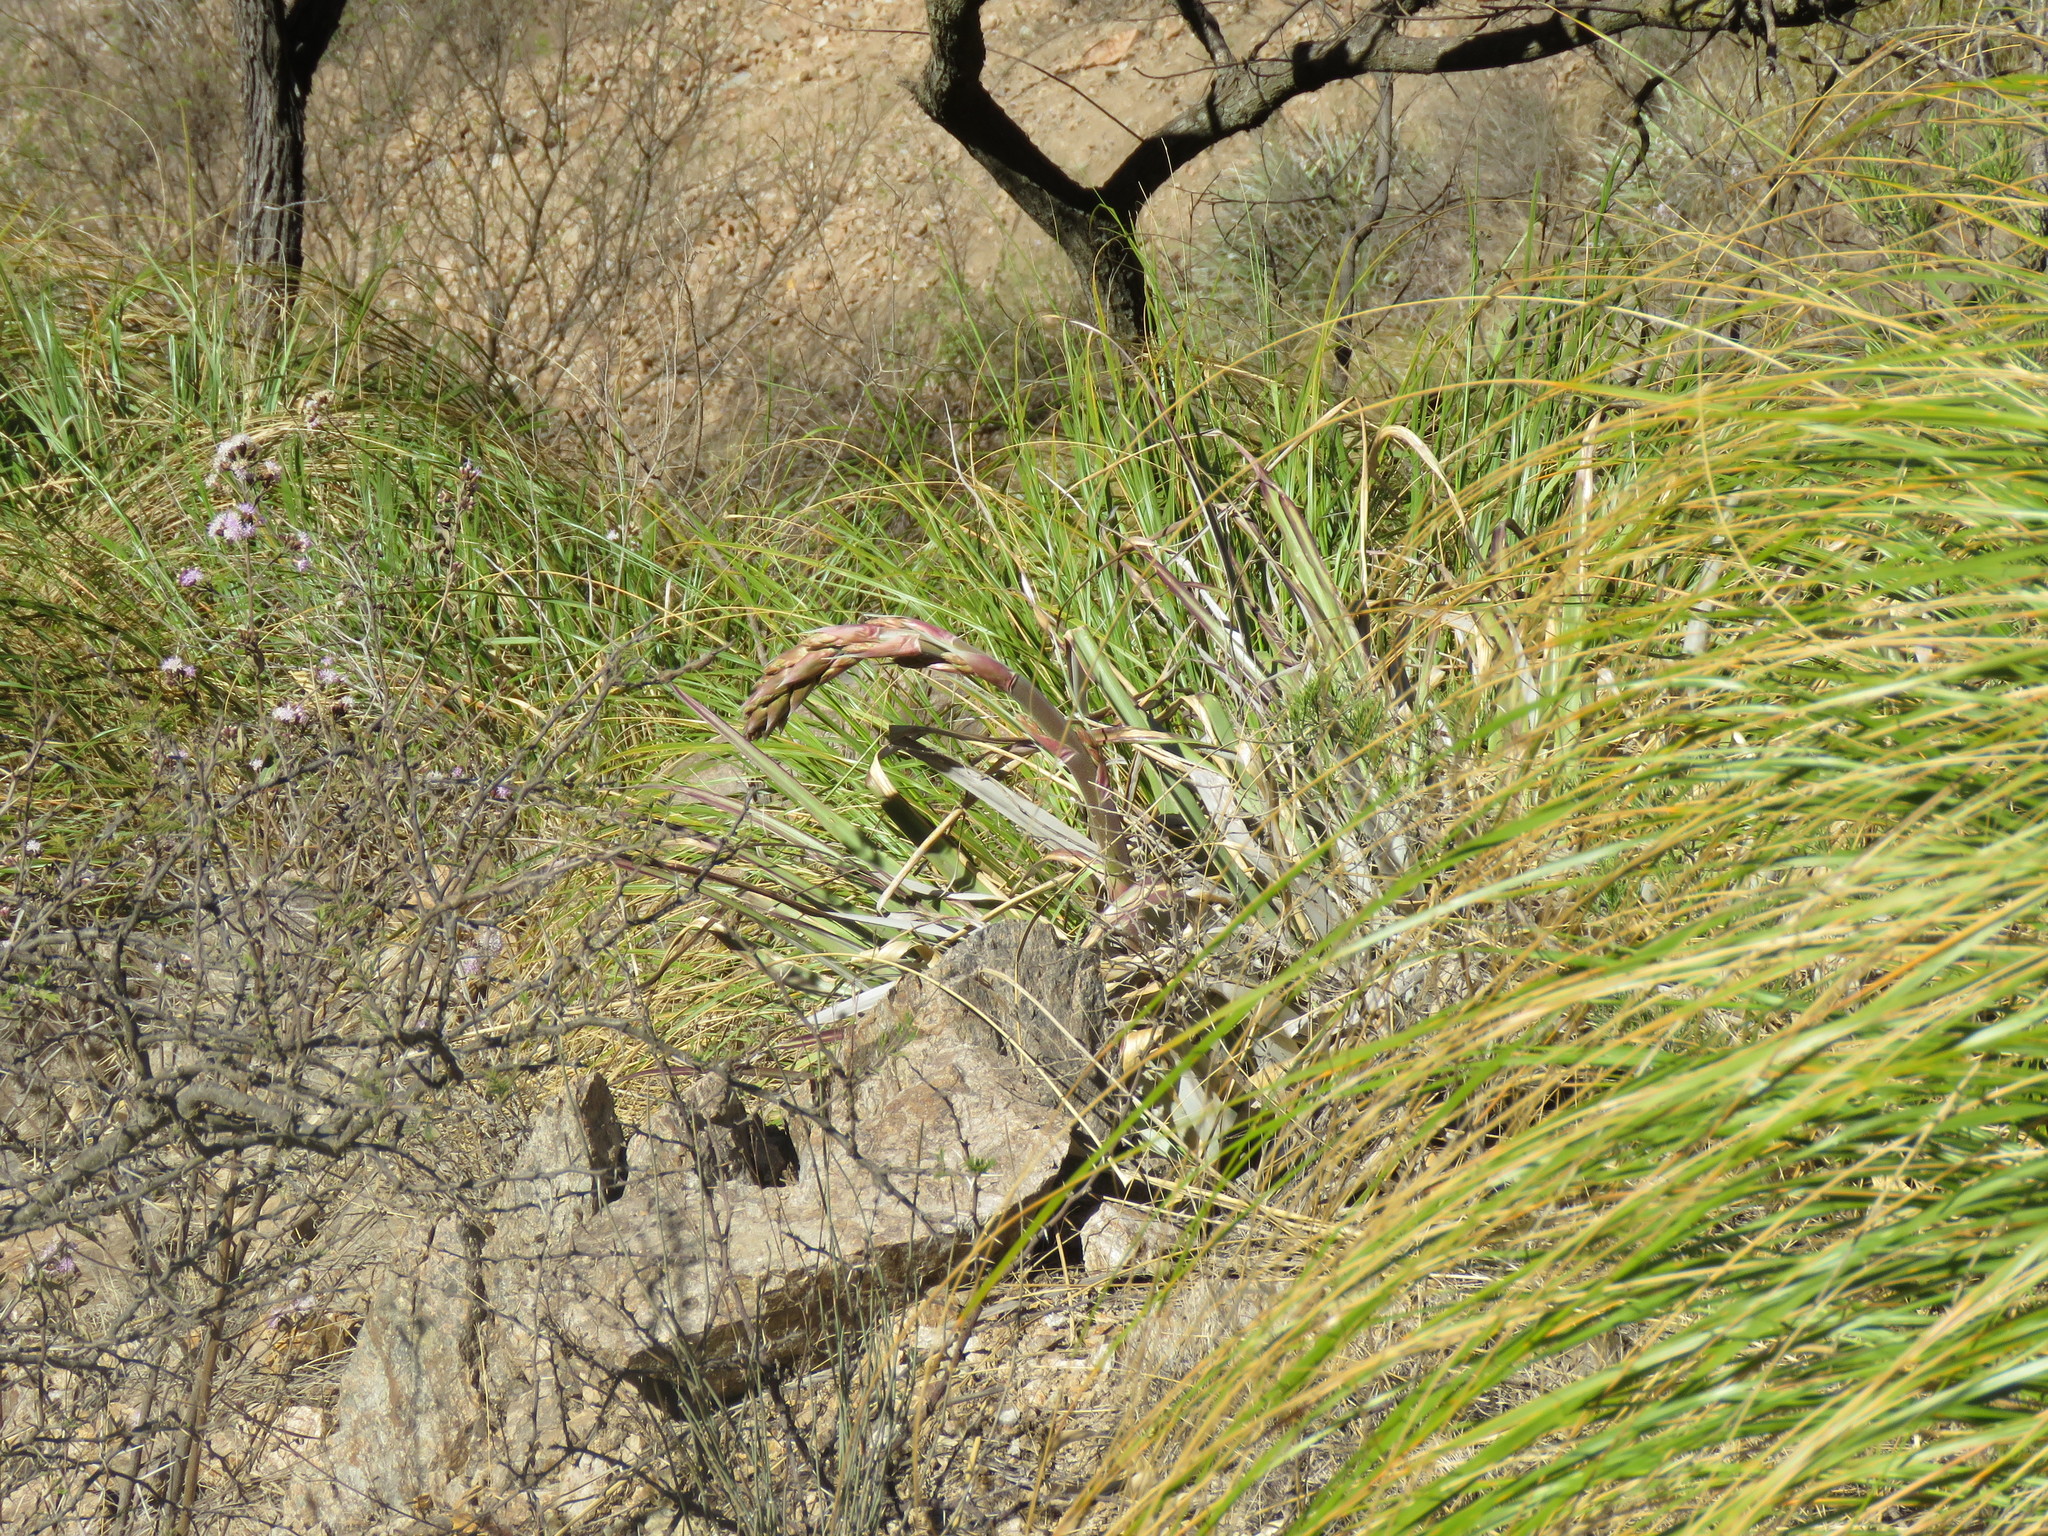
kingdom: Plantae
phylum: Tracheophyta
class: Liliopsida
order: Poales
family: Bromeliaceae
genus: Puya
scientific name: Puya spathacea
